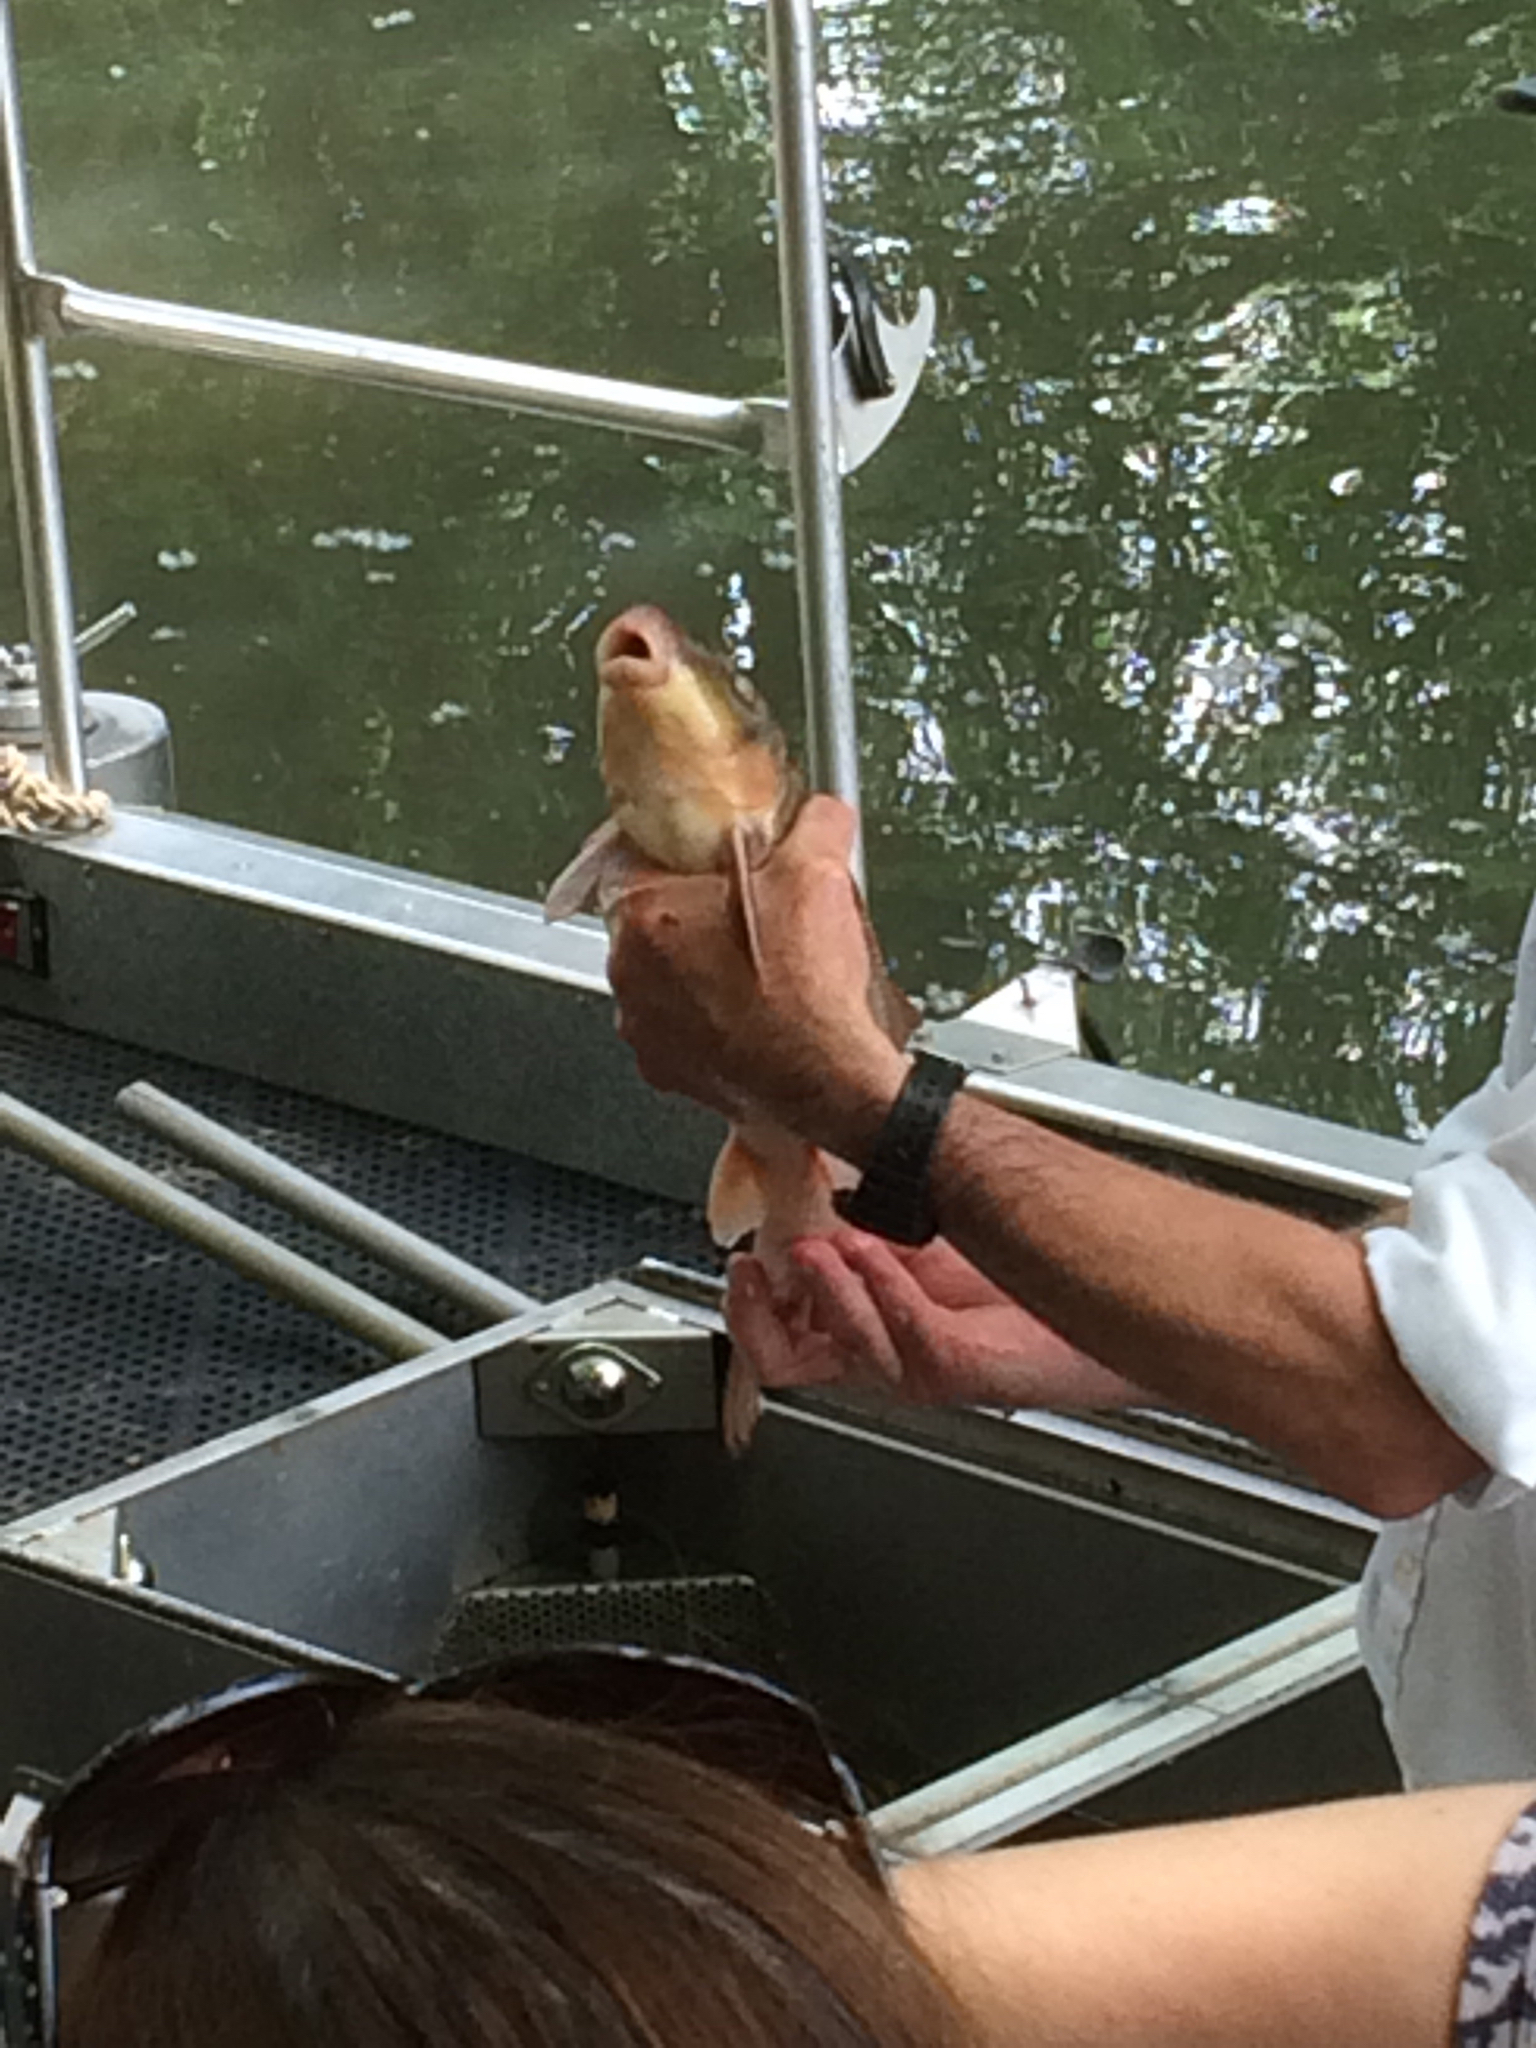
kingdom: Animalia
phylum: Chordata
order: Cypriniformes
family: Catostomidae
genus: Catostomus
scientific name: Catostomus commersonii
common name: White sucker
